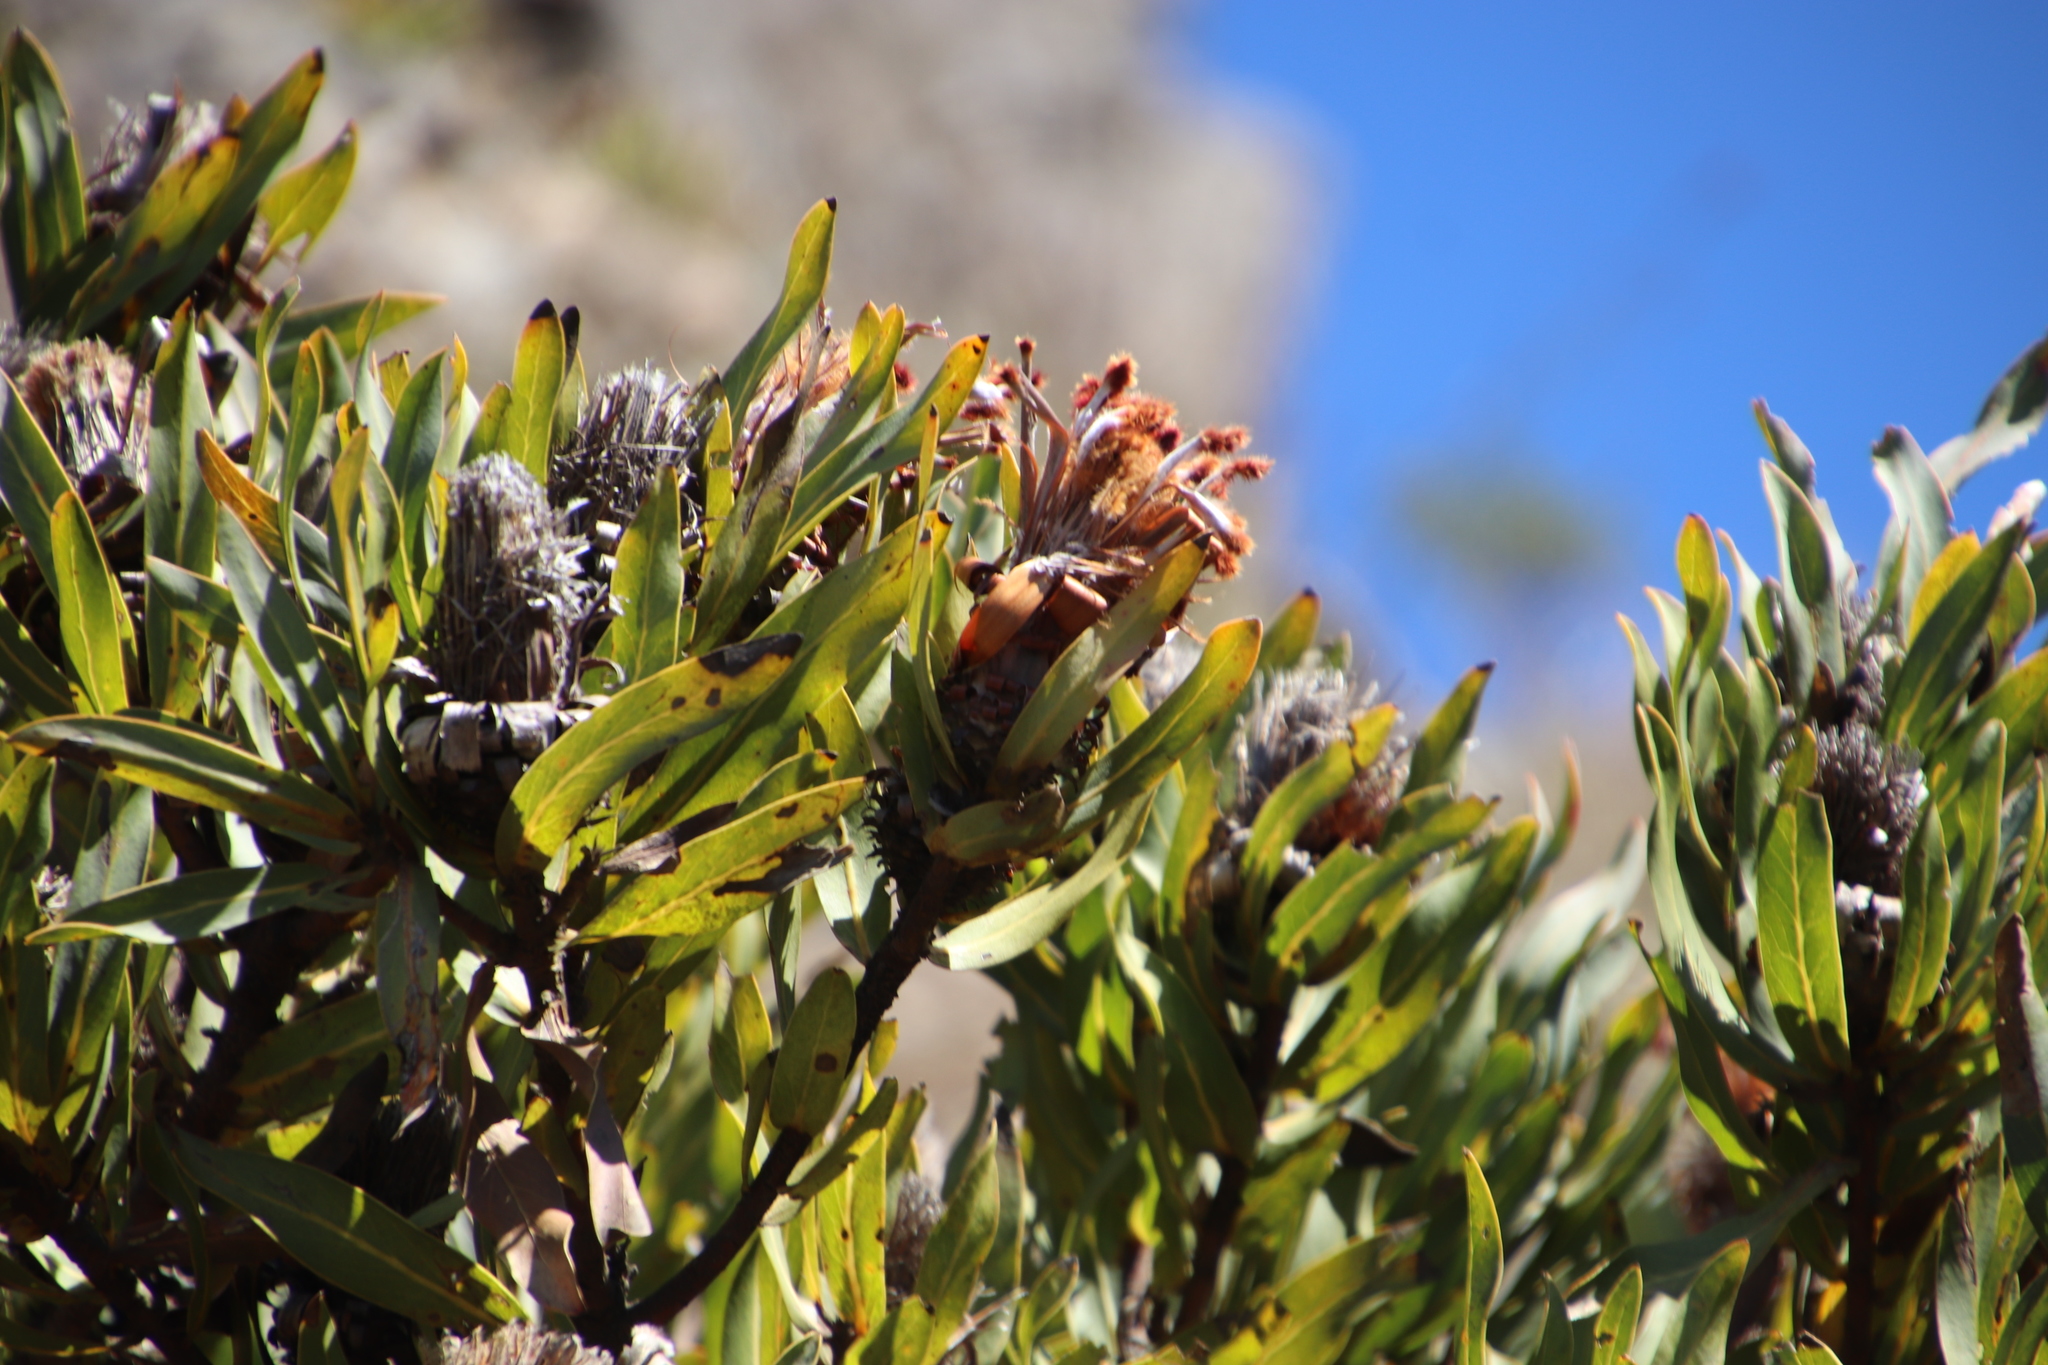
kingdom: Plantae
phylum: Tracheophyta
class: Magnoliopsida
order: Proteales
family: Proteaceae
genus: Protea
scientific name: Protea laurifolia
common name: Grey-leaf sugarbsh
